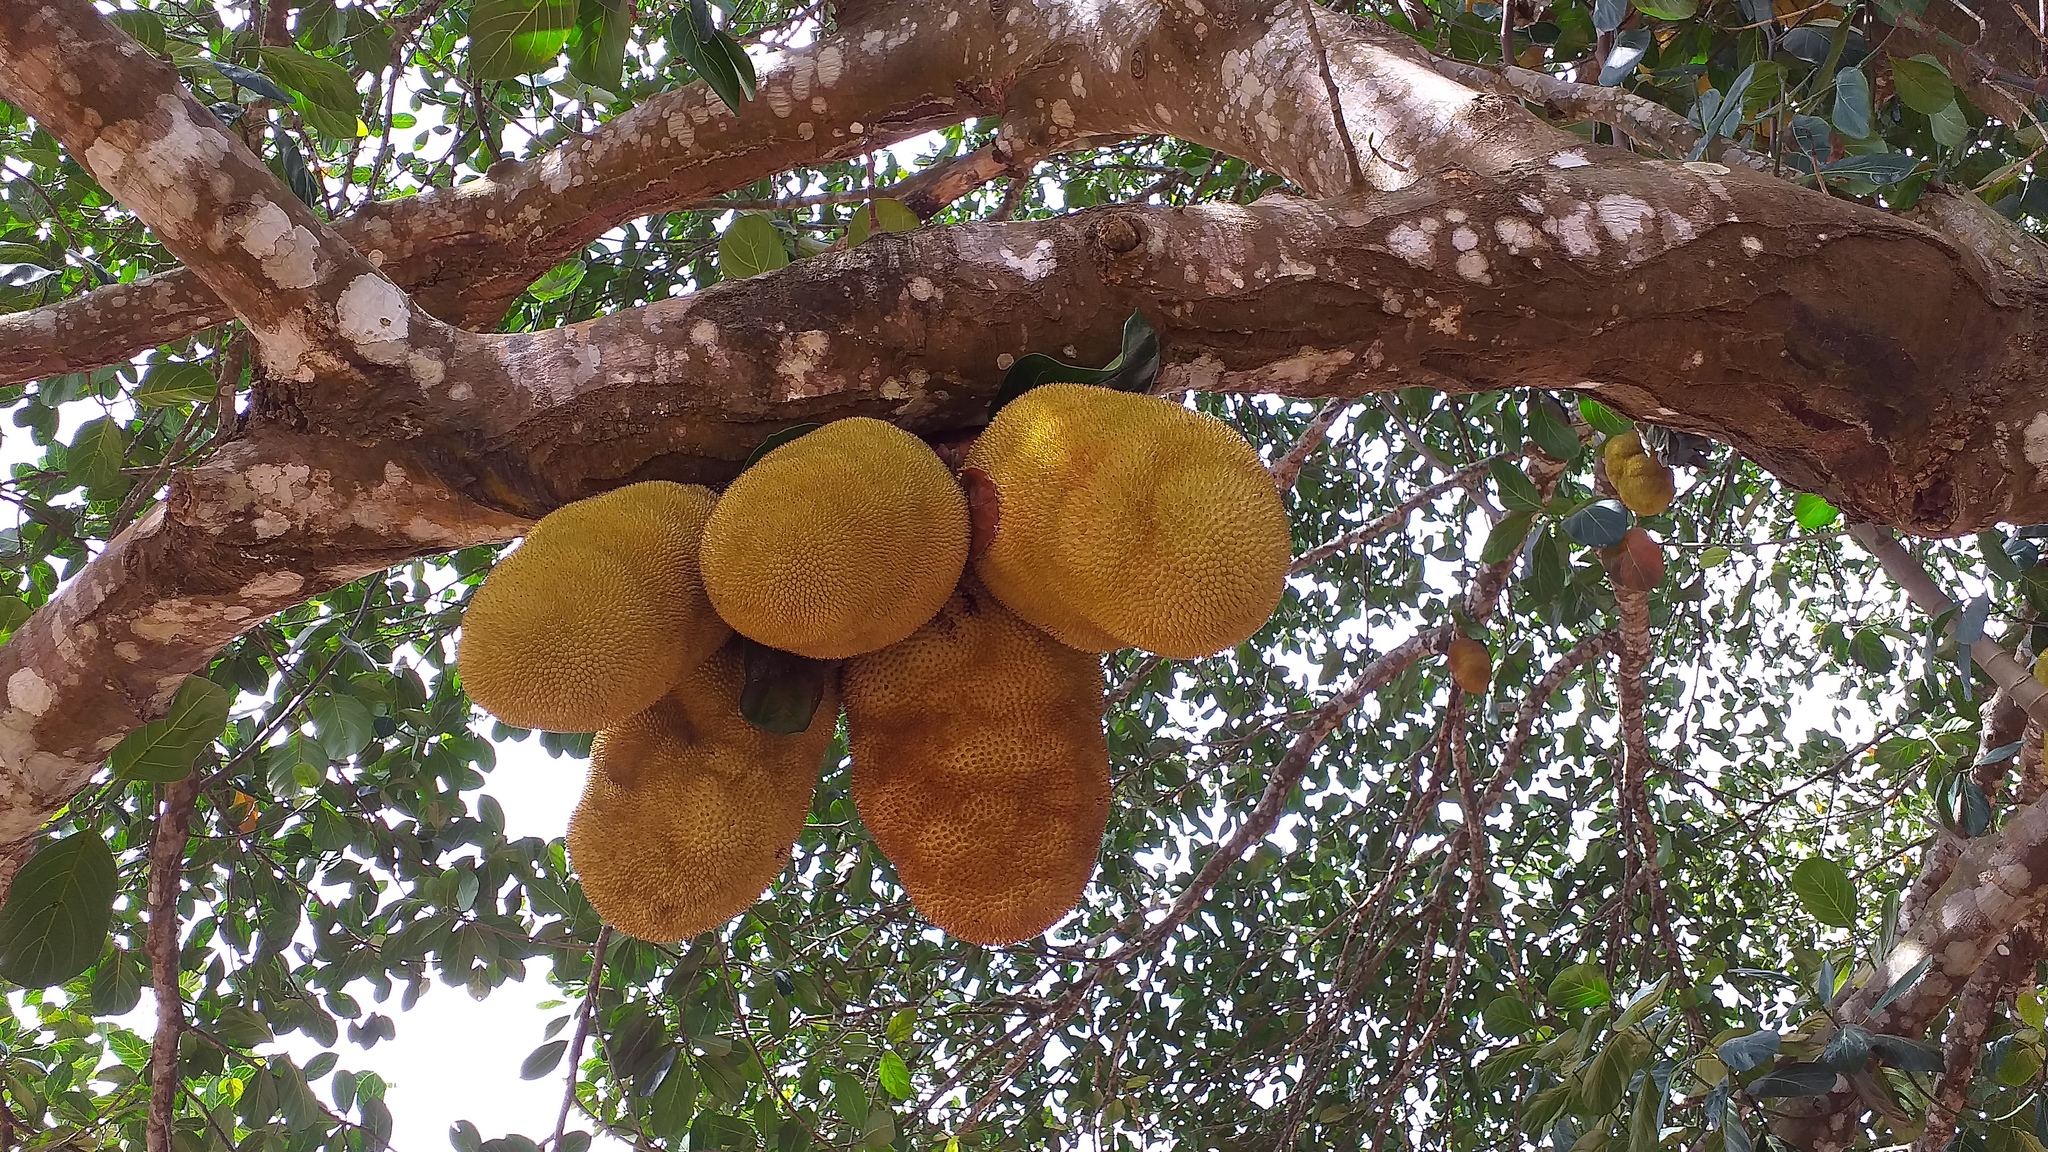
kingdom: Plantae
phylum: Tracheophyta
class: Magnoliopsida
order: Rosales
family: Moraceae
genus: Artocarpus
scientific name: Artocarpus heterophyllus
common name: Jackfruit
